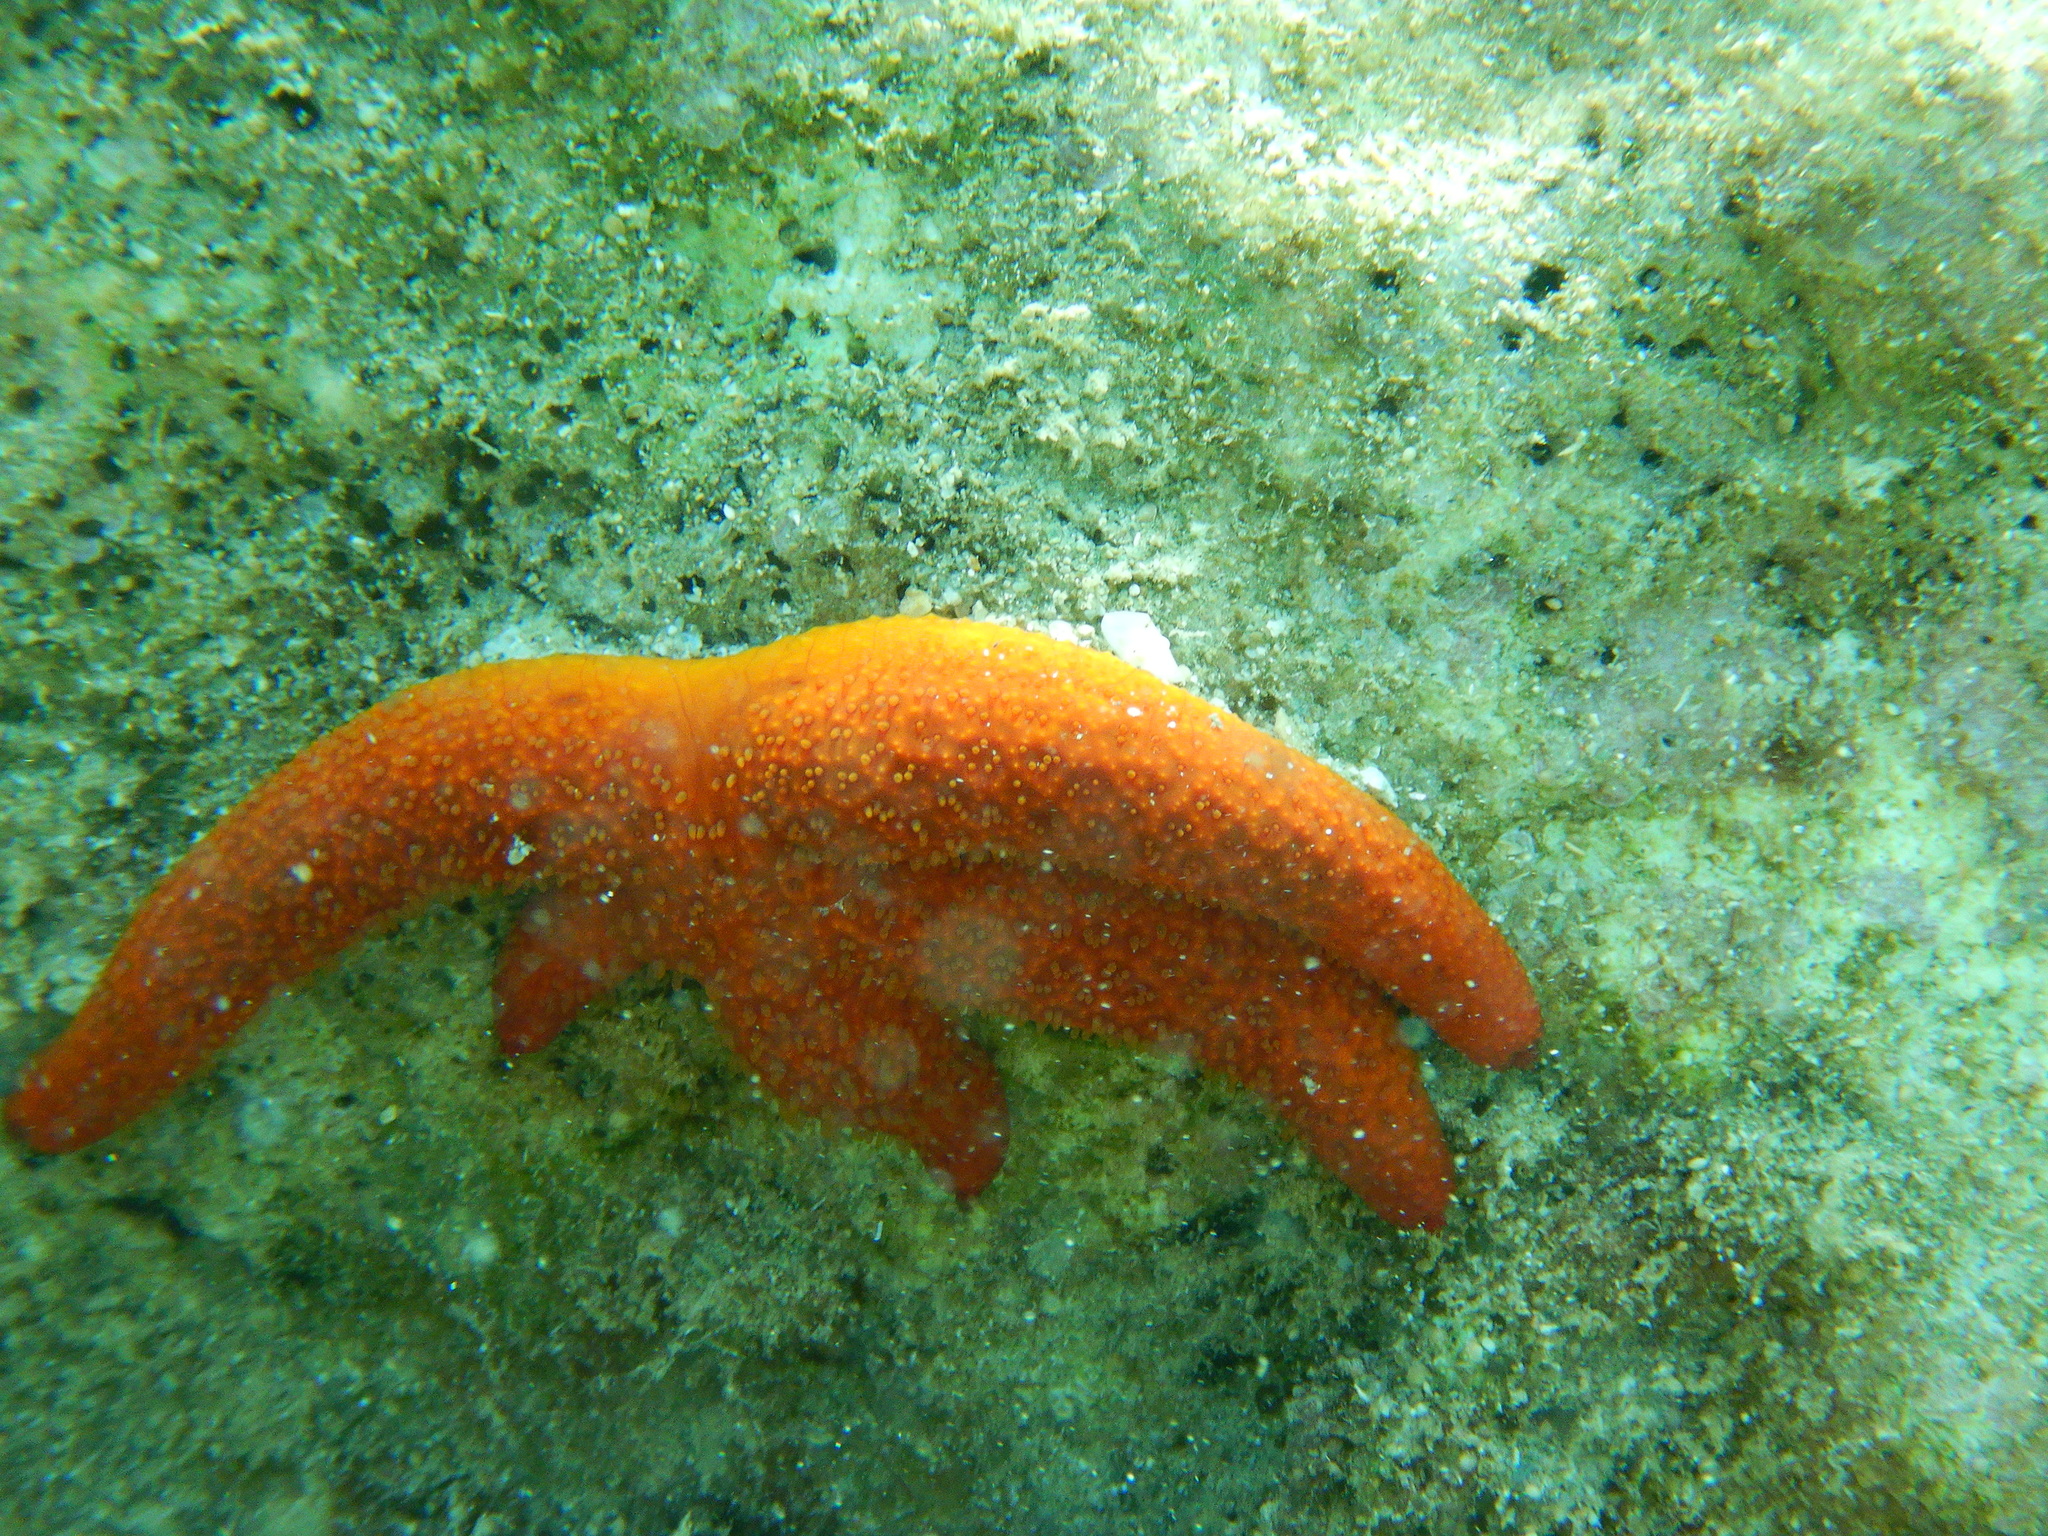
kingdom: Animalia
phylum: Echinodermata
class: Asteroidea
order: Spinulosida
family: Echinasteridae
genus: Echinaster
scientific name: Echinaster sepositus
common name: Red starfish
